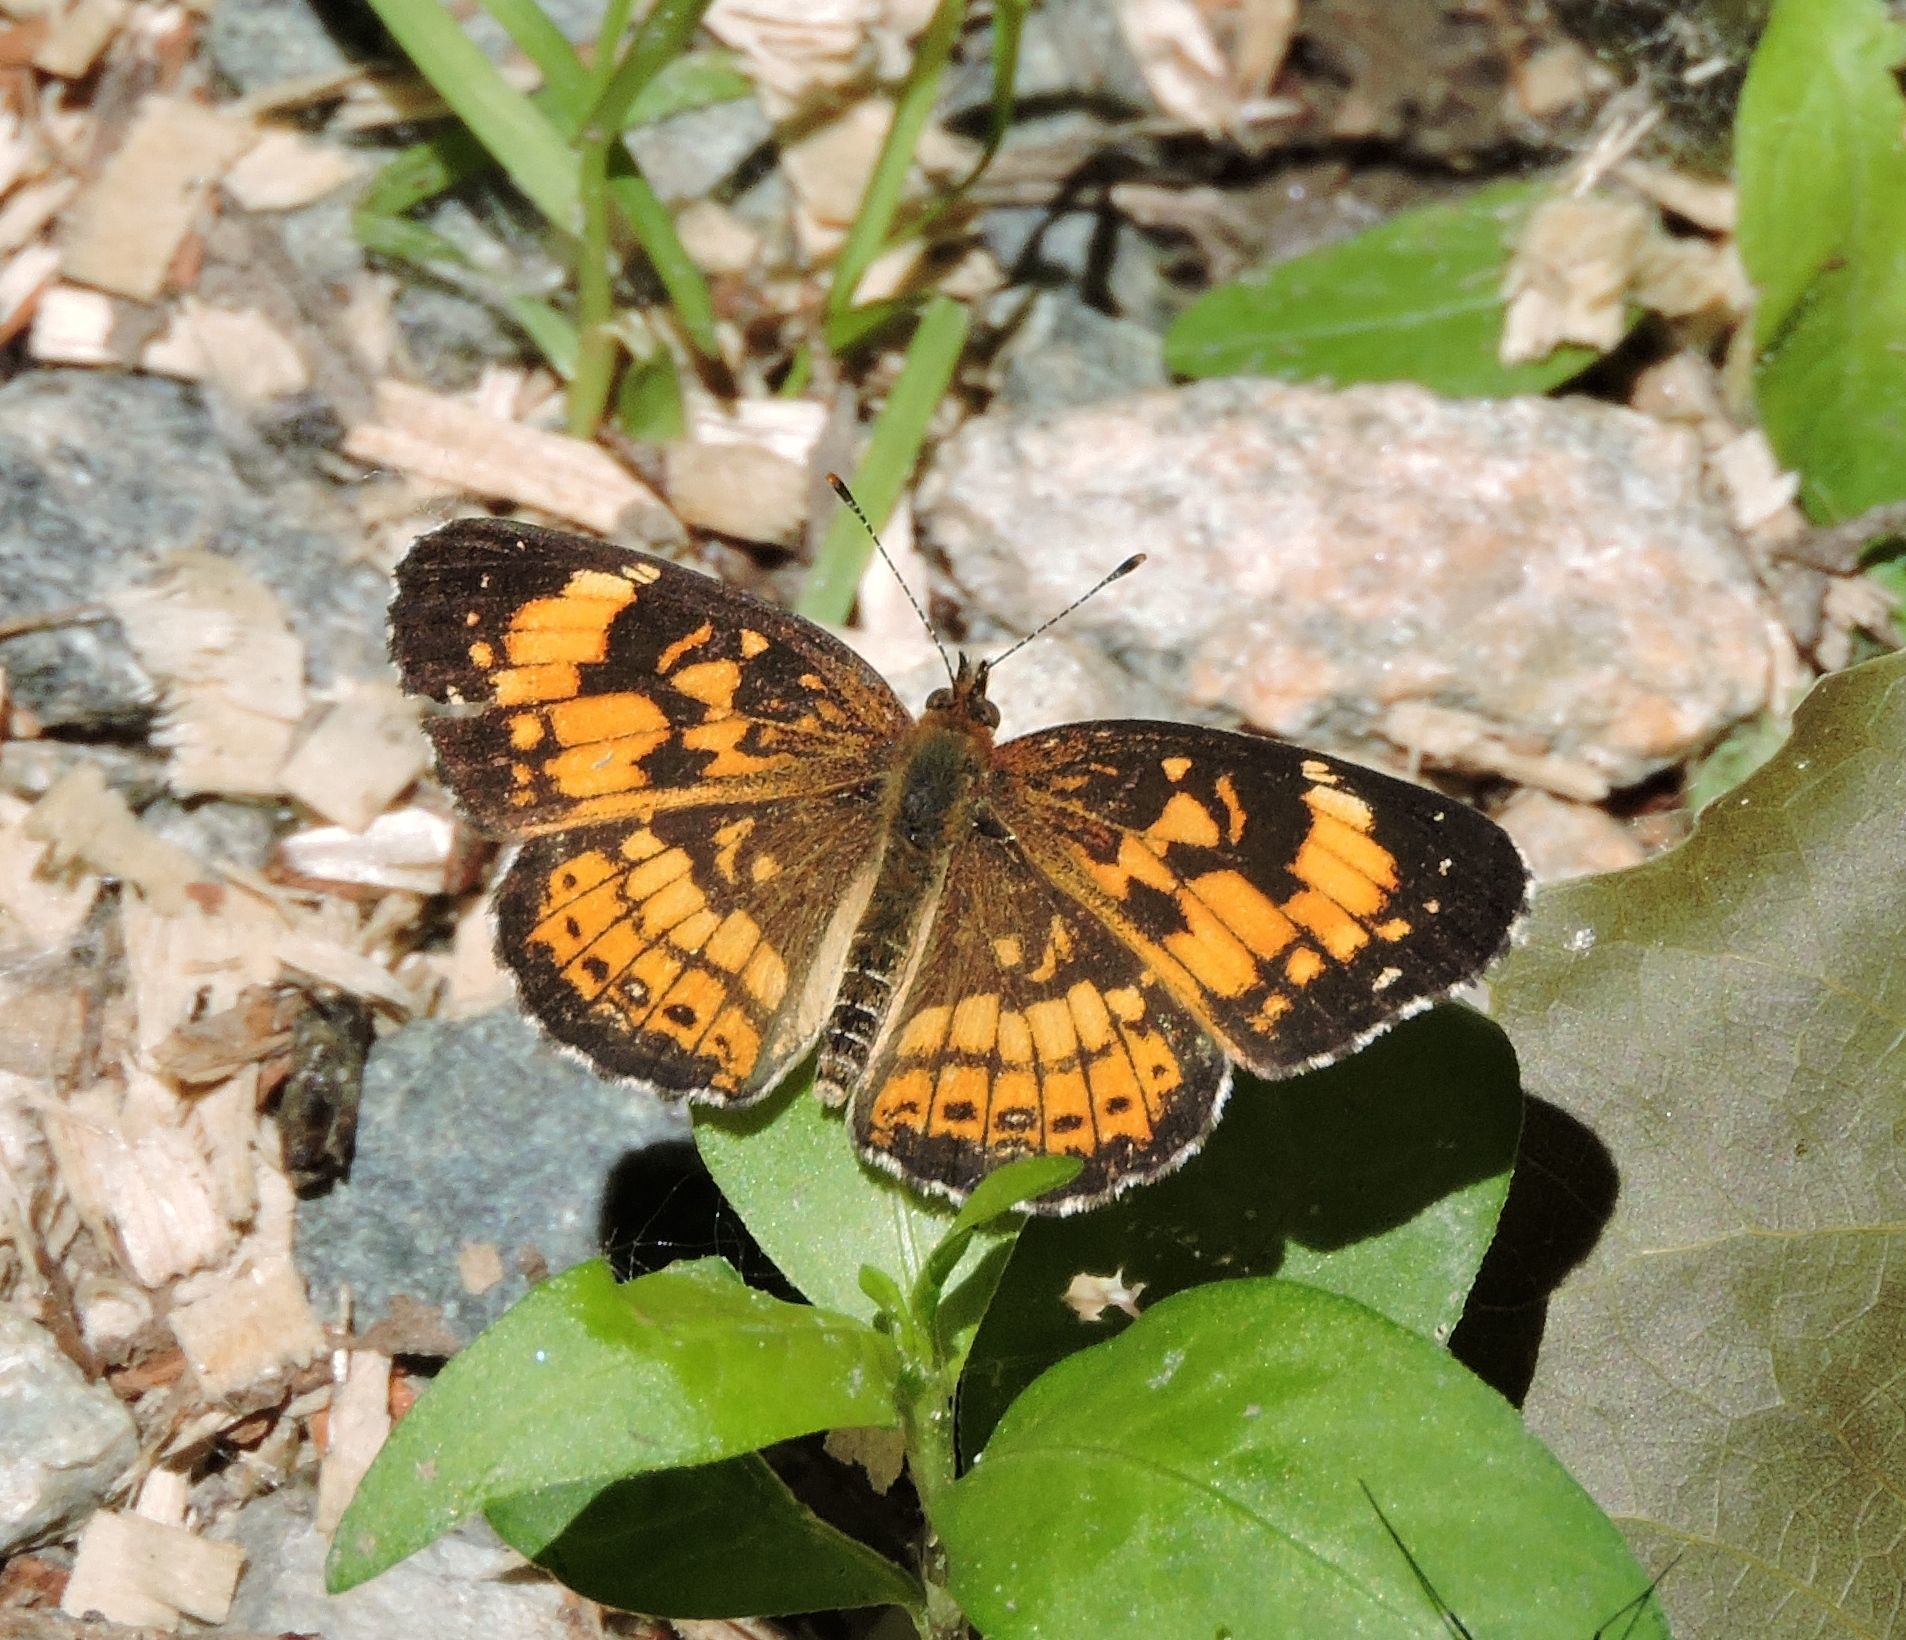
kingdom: Animalia
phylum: Arthropoda
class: Insecta
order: Lepidoptera
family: Nymphalidae
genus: Chlosyne
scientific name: Chlosyne nycteis
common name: Silvery checkerspot
